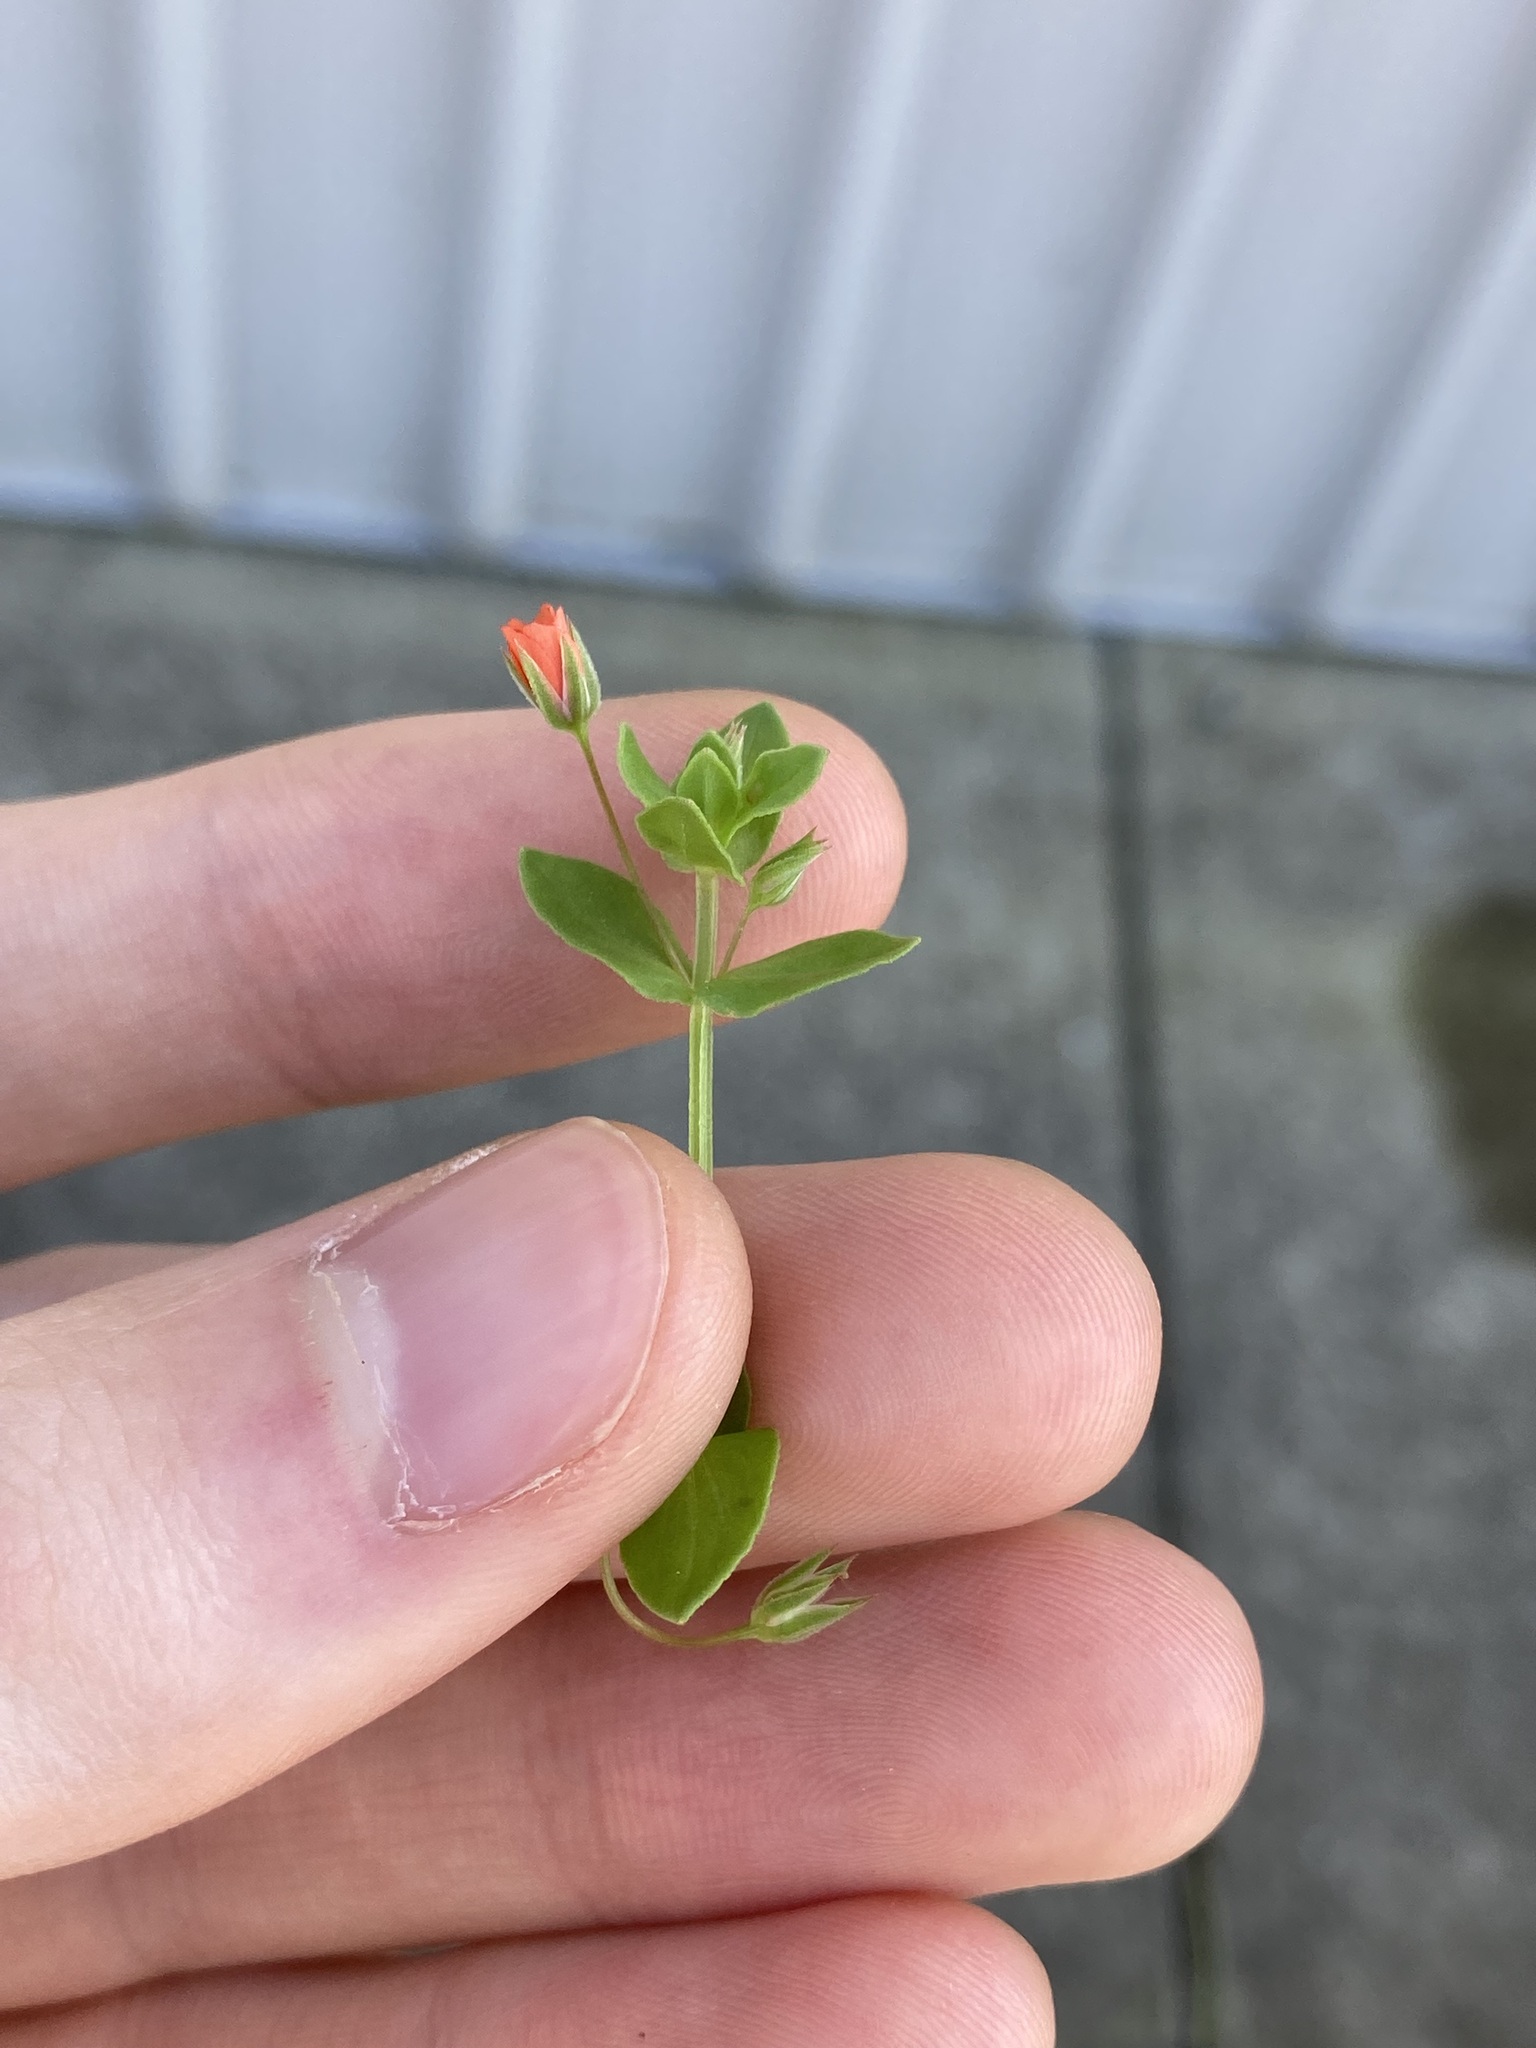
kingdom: Plantae
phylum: Tracheophyta
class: Magnoliopsida
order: Ericales
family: Primulaceae
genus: Lysimachia
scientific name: Lysimachia arvensis
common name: Scarlet pimpernel
